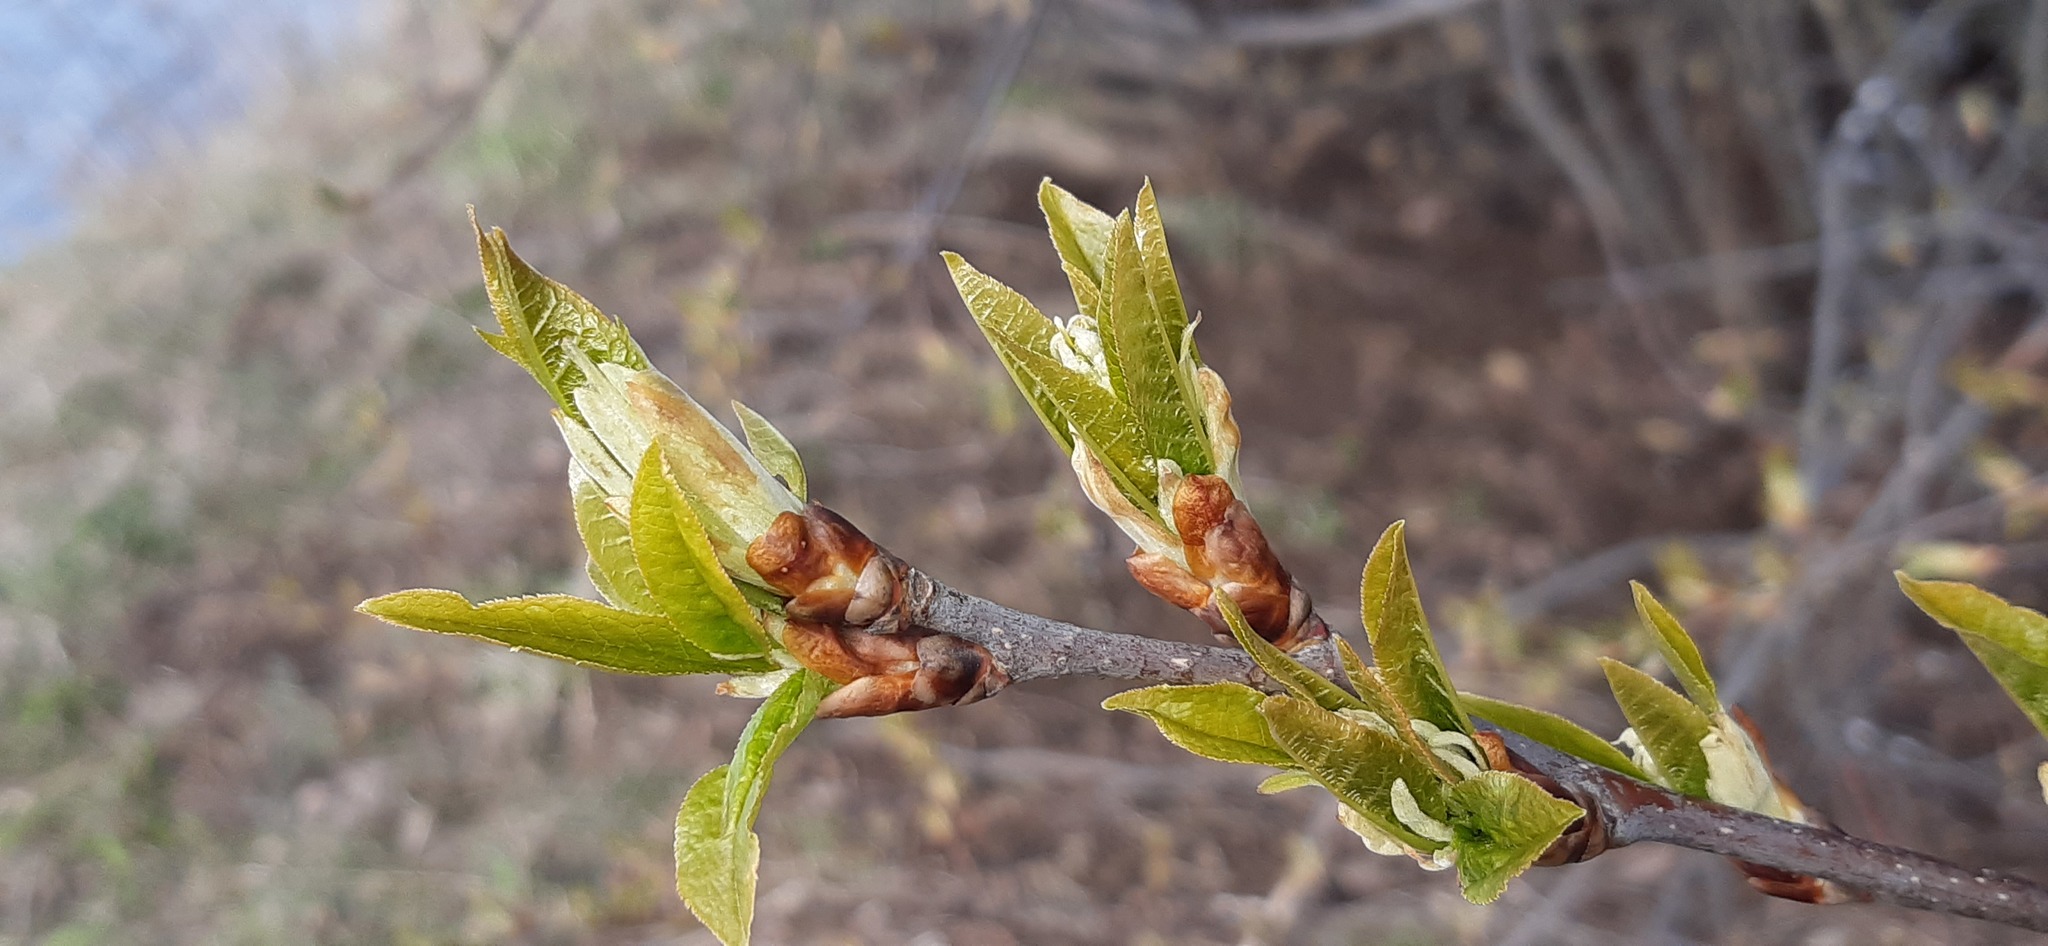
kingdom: Plantae
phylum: Tracheophyta
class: Magnoliopsida
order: Rosales
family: Rosaceae
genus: Prunus
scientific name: Prunus padus
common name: Bird cherry
